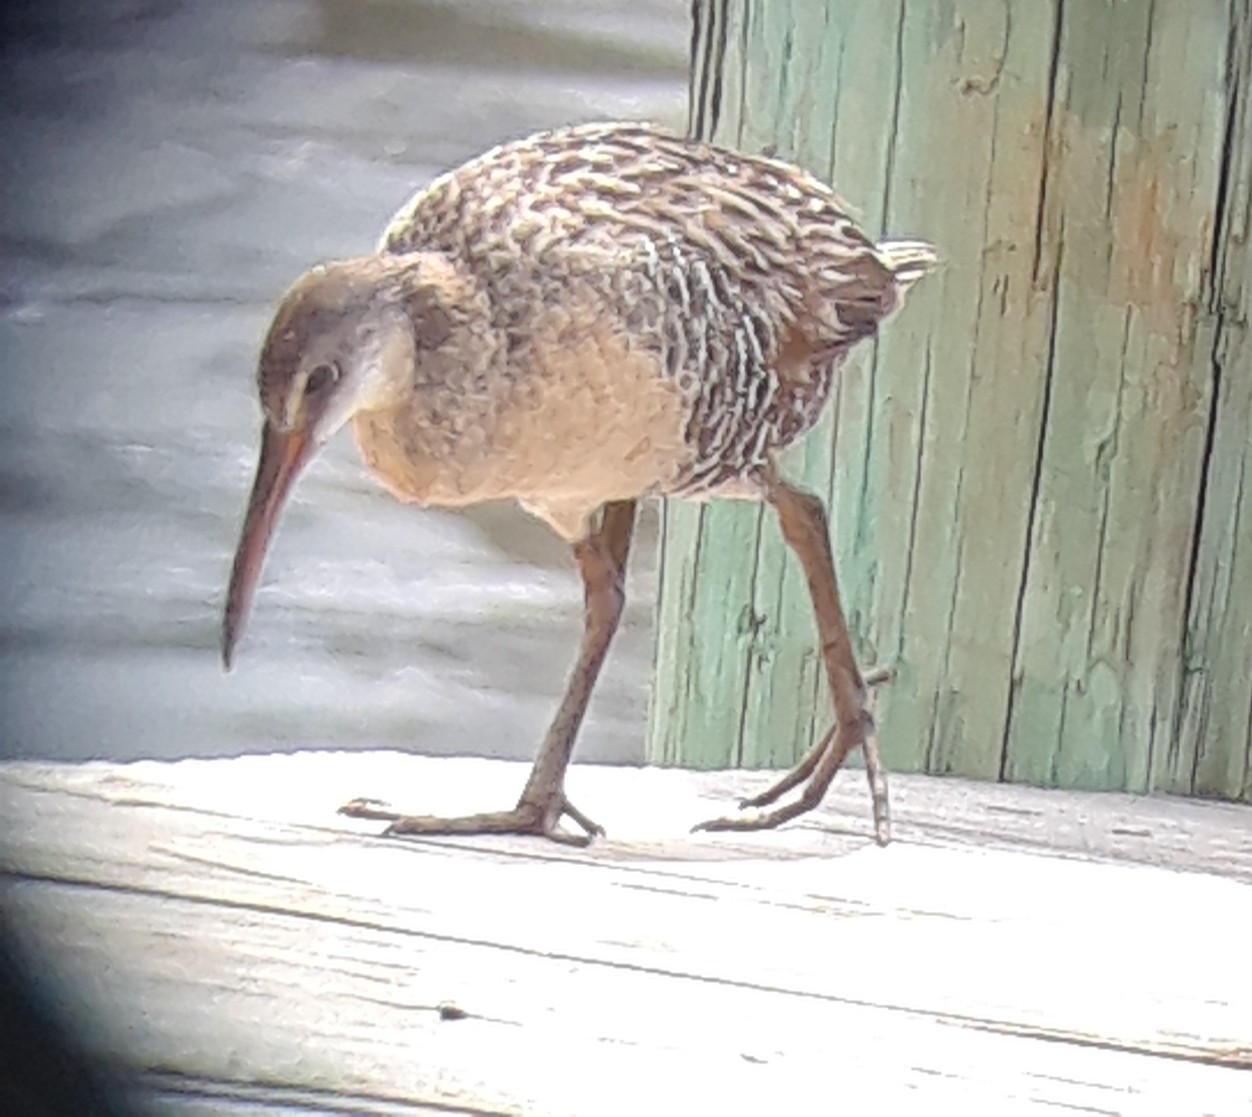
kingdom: Animalia
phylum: Chordata
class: Aves
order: Gruiformes
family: Rallidae
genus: Rallus
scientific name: Rallus crepitans
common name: Clapper rail
